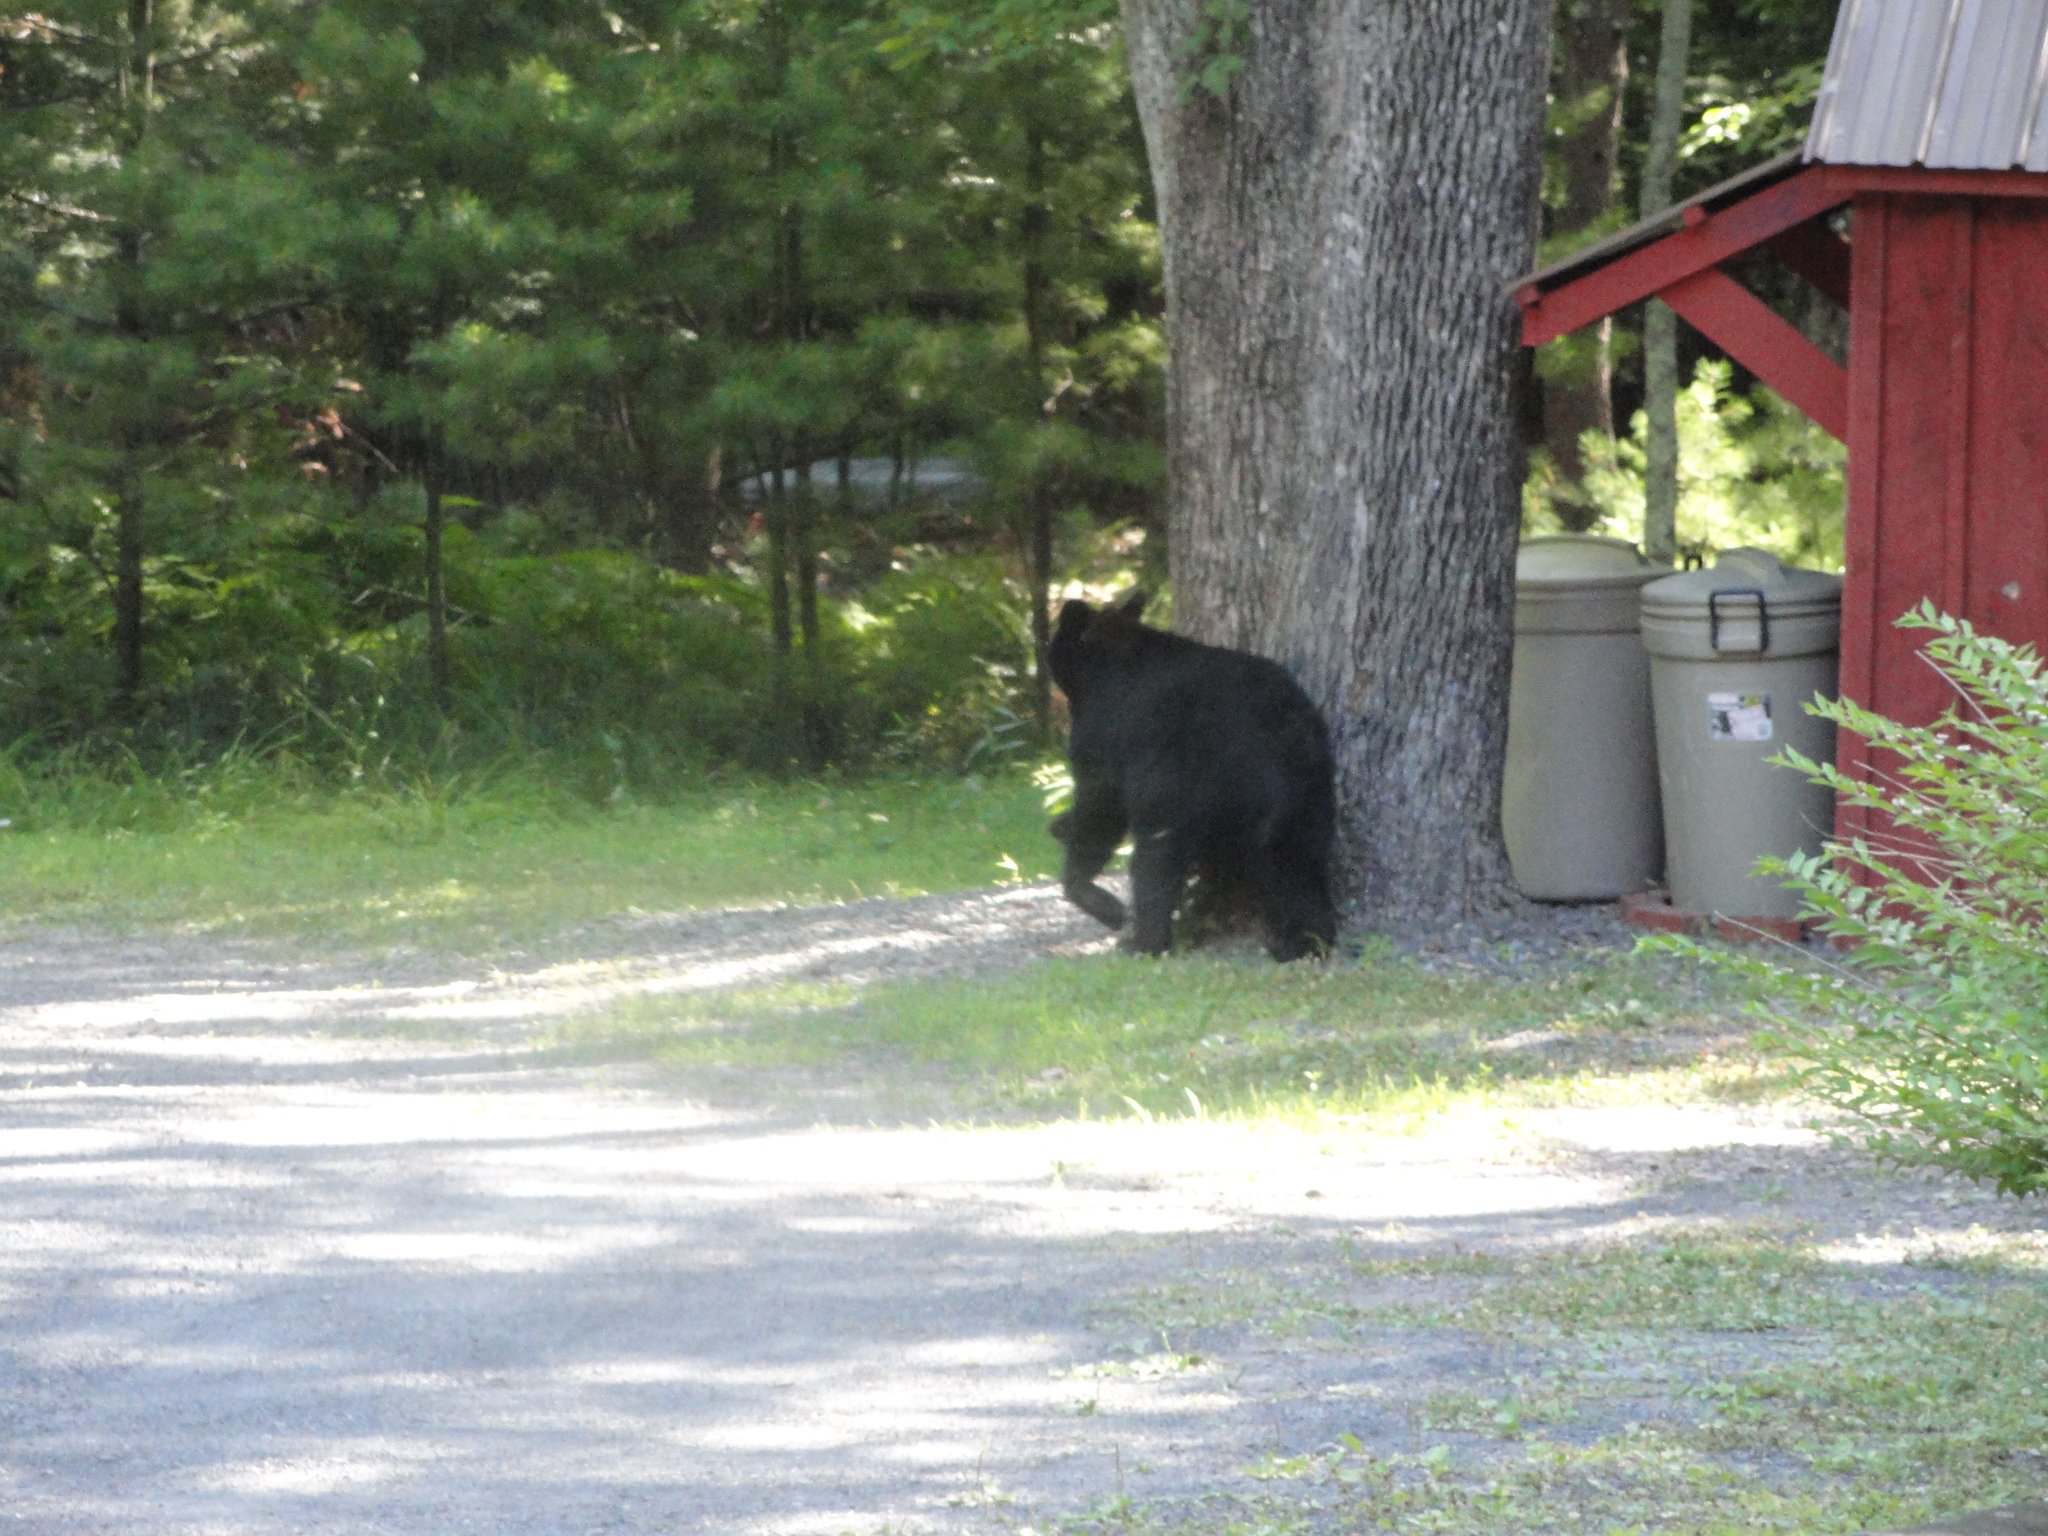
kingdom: Animalia
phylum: Chordata
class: Mammalia
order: Carnivora
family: Ursidae
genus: Ursus
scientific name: Ursus americanus
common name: American black bear
